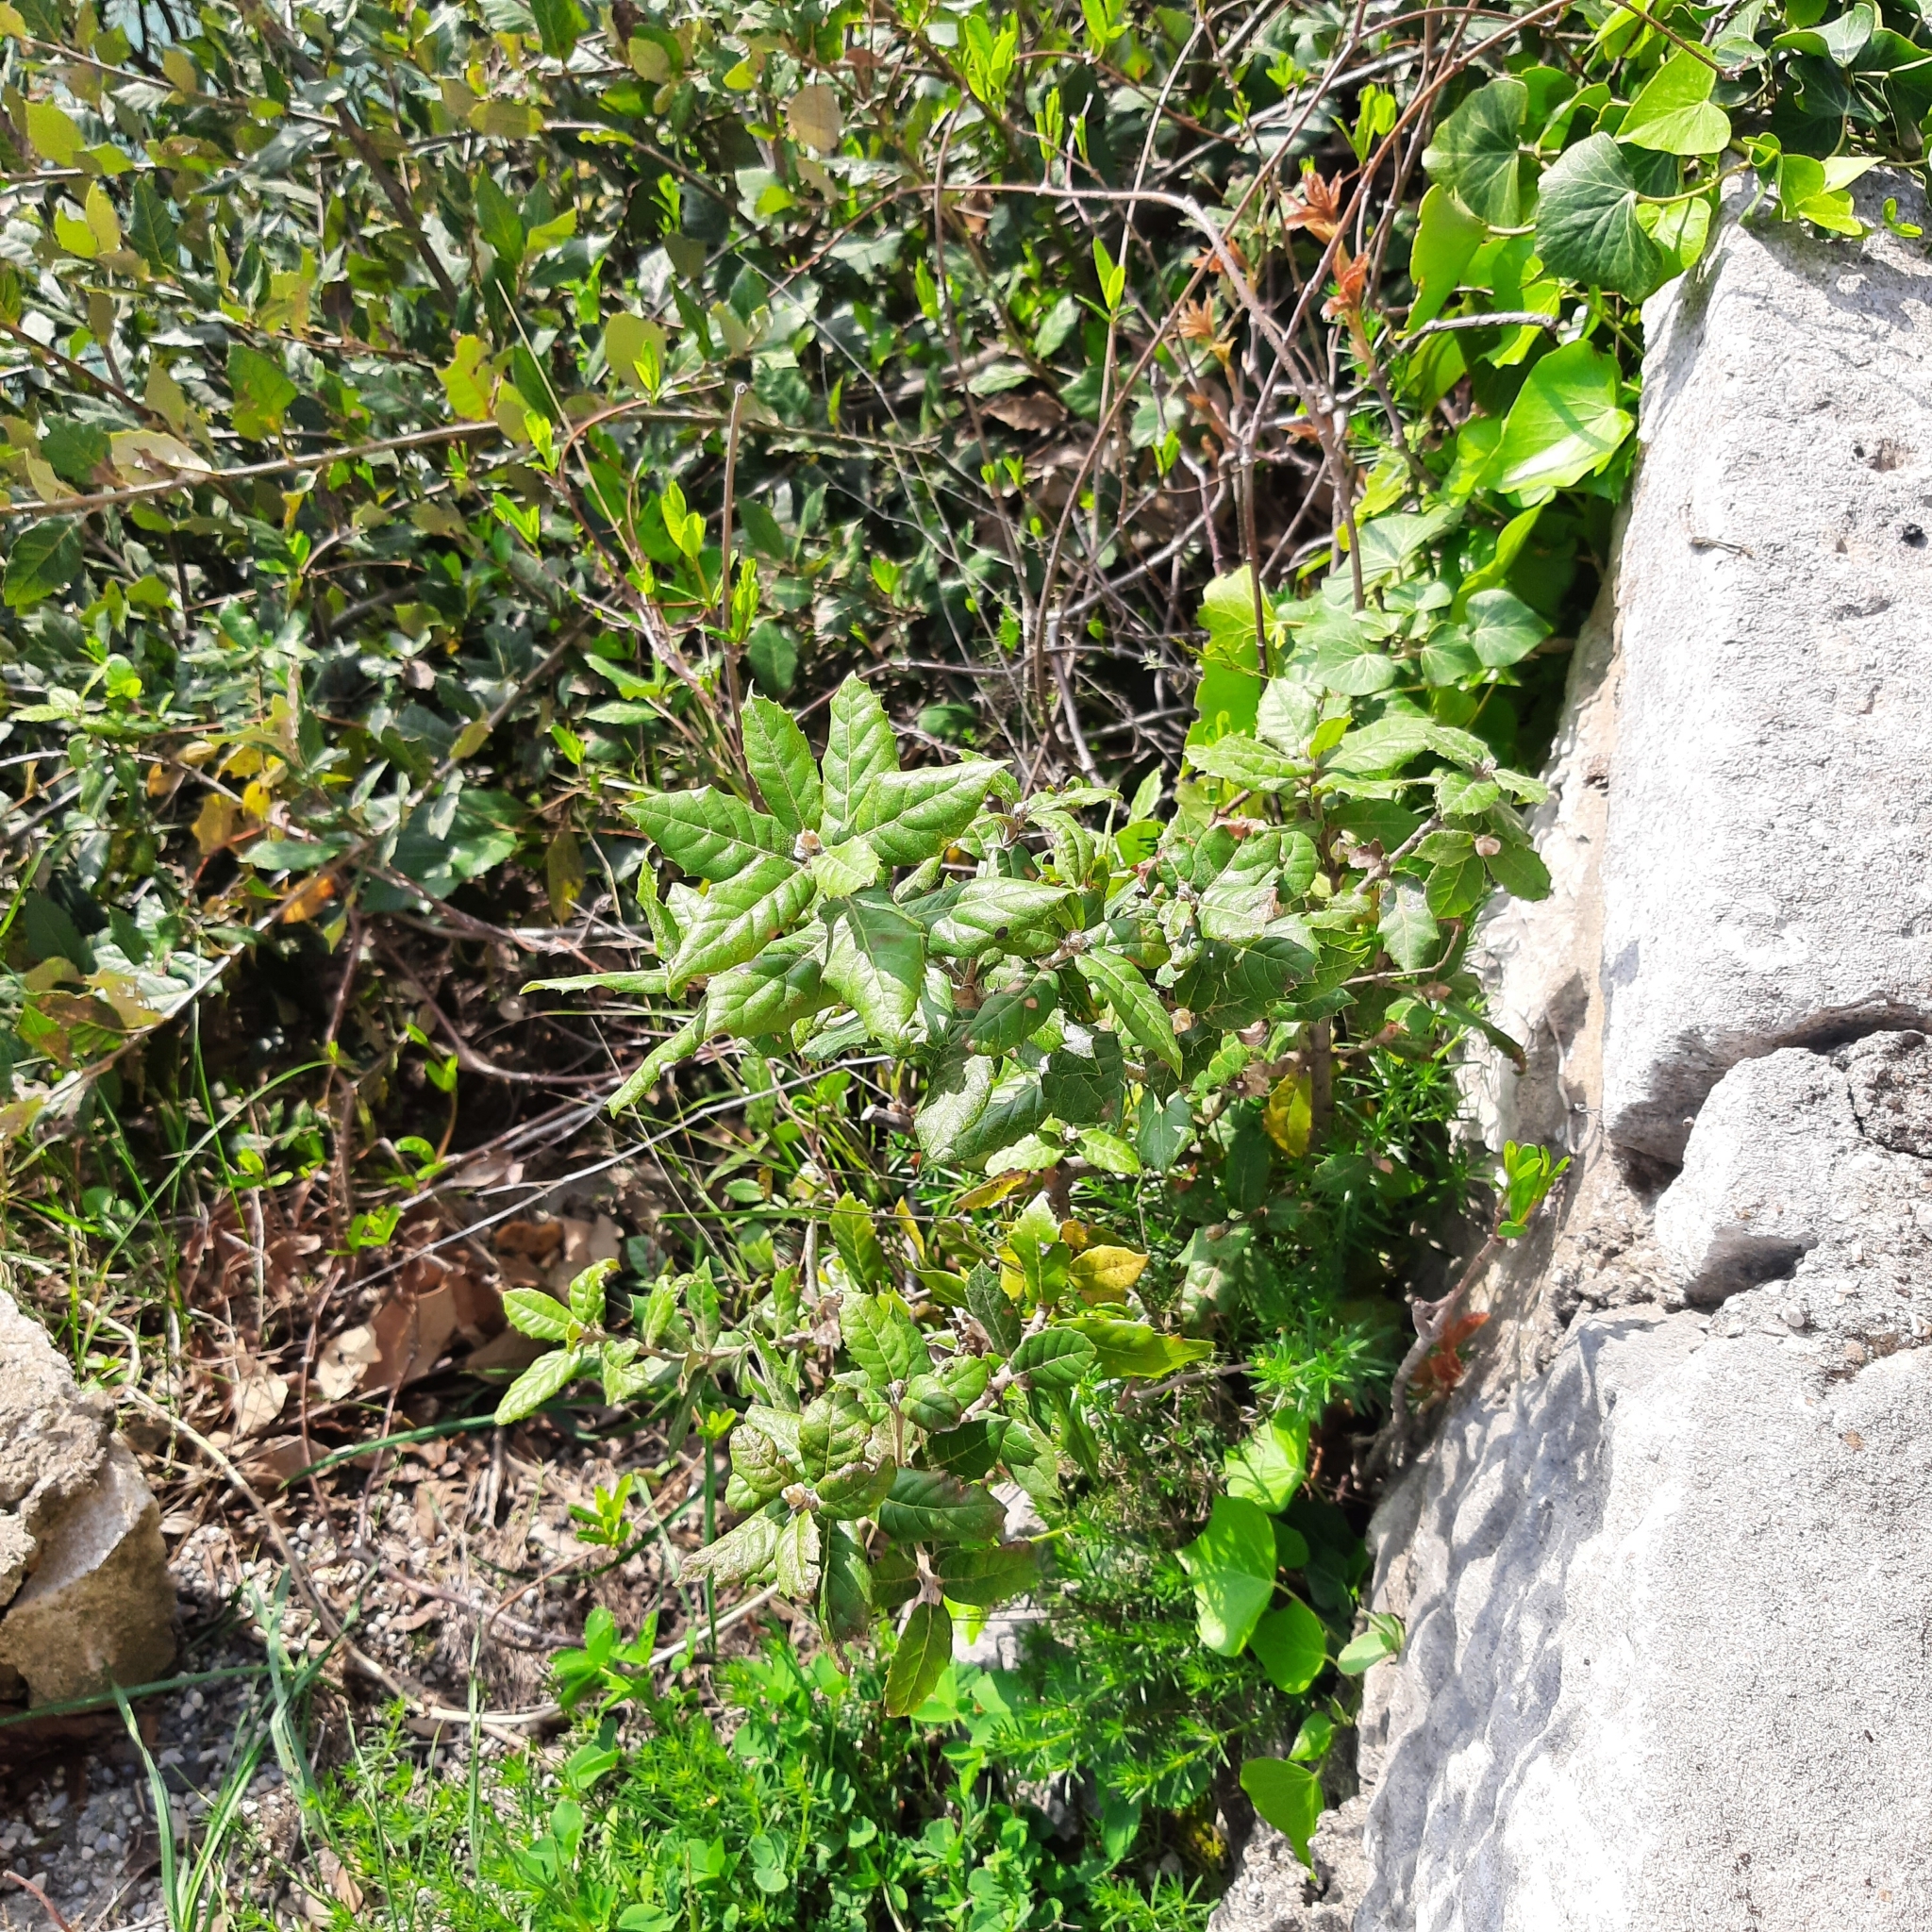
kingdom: Plantae
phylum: Tracheophyta
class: Magnoliopsida
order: Fagales
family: Fagaceae
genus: Quercus
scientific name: Quercus ilex
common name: Evergreen oak
